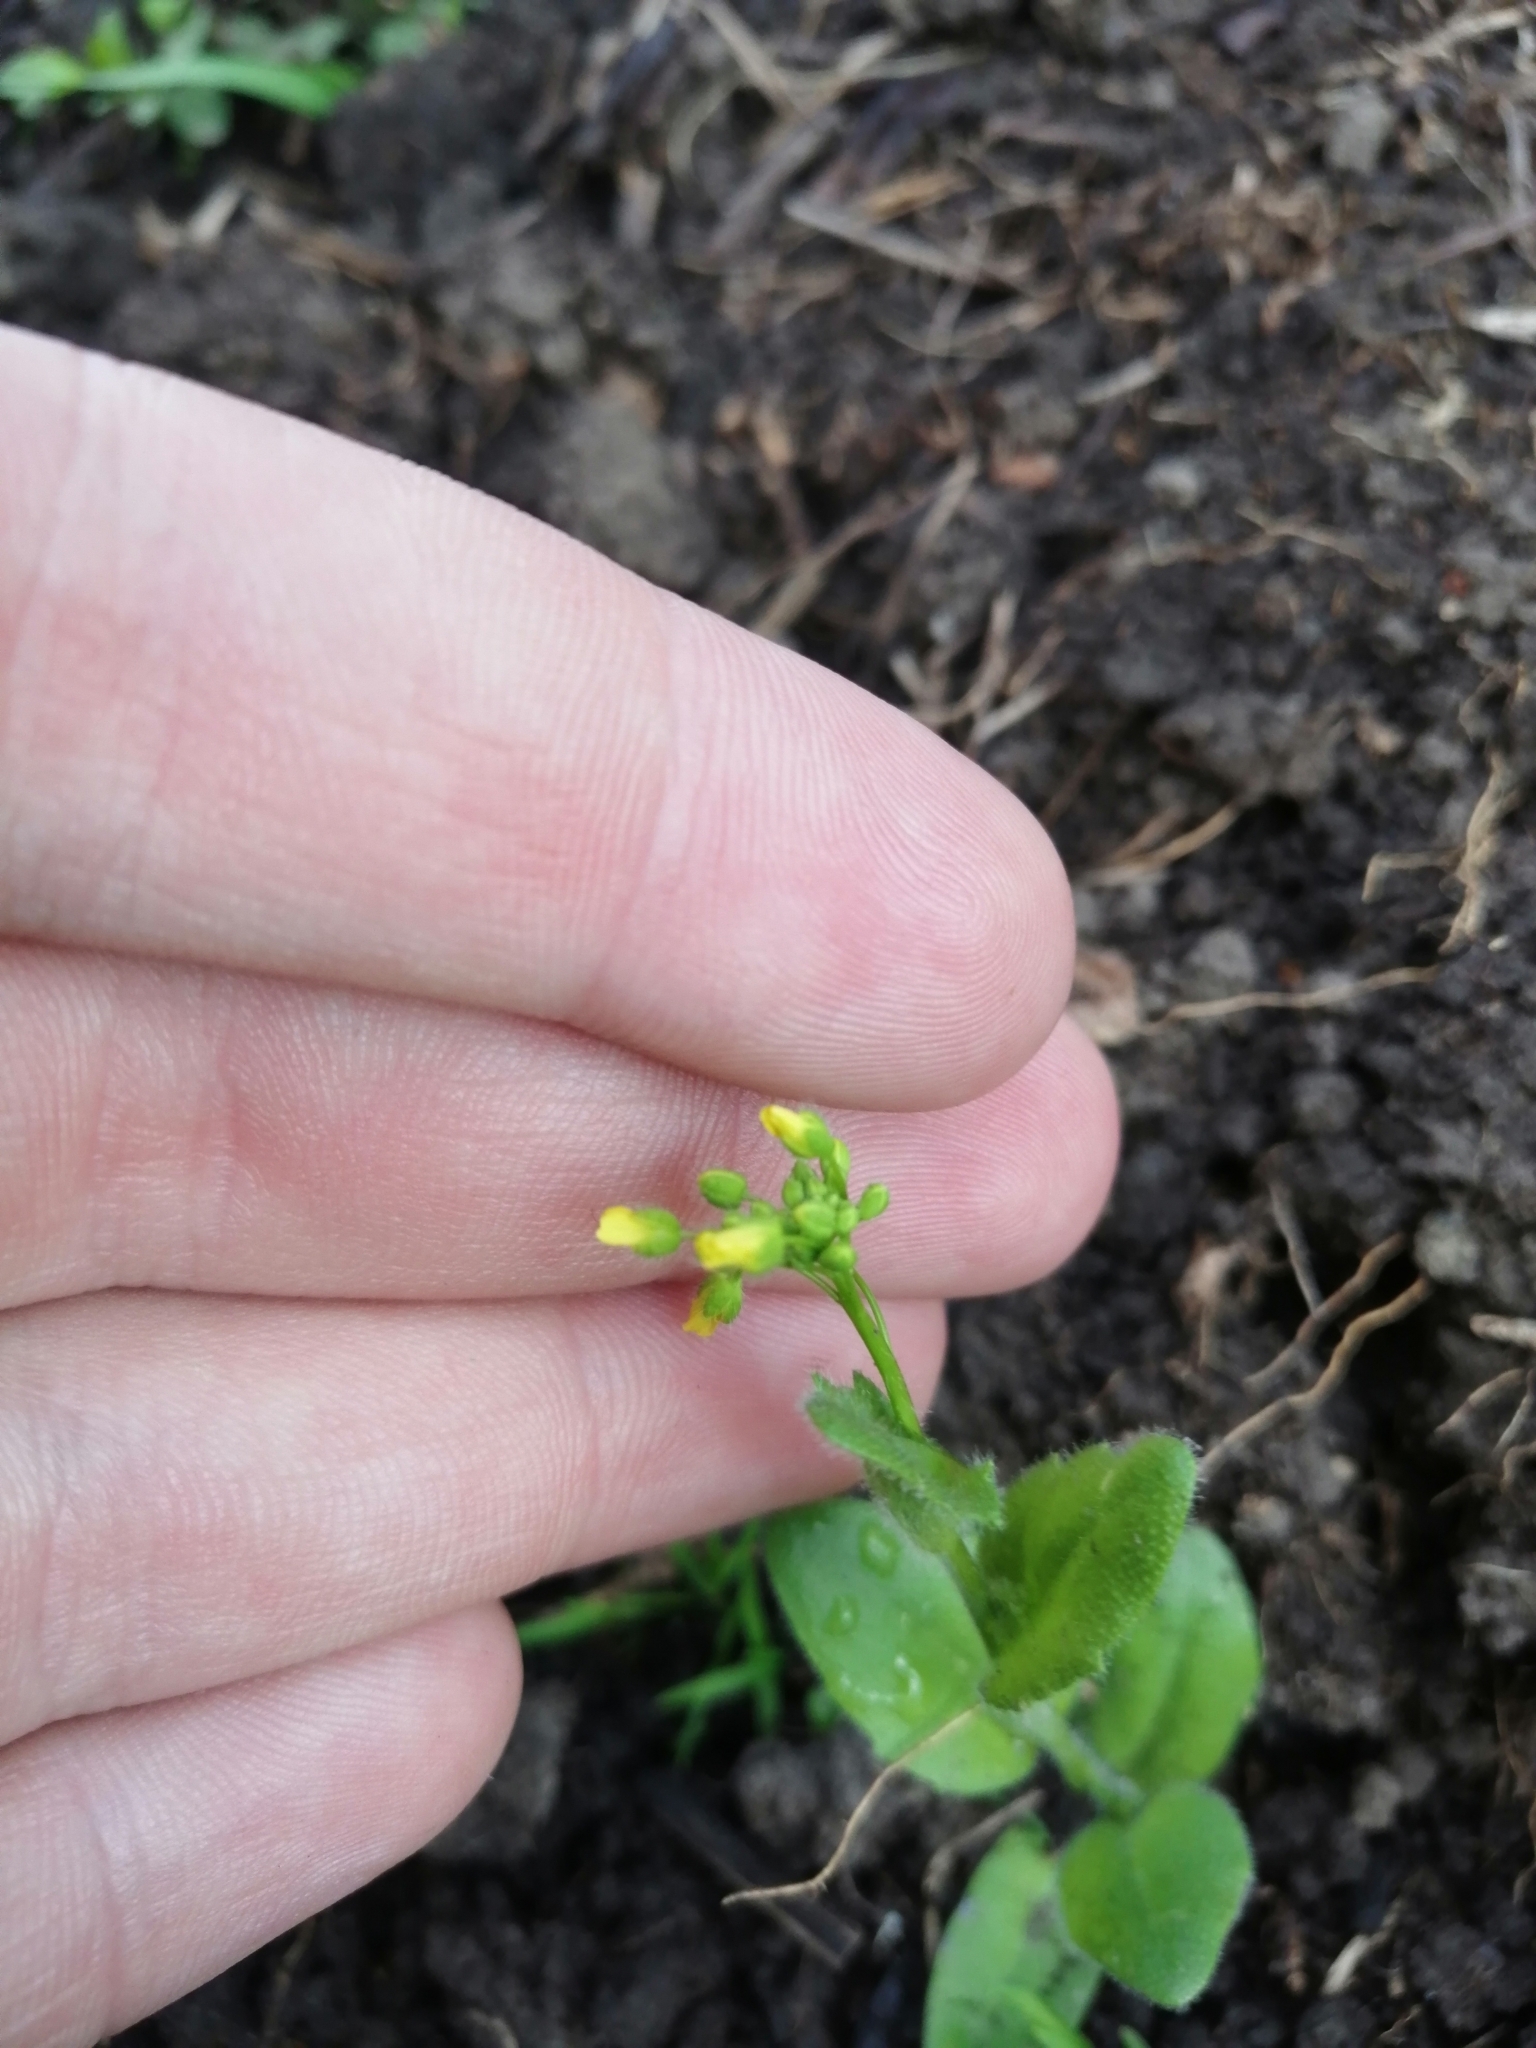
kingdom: Plantae
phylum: Tracheophyta
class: Magnoliopsida
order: Brassicales
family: Brassicaceae
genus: Draba
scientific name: Draba nemorosa
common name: Wood whitlow-grass
